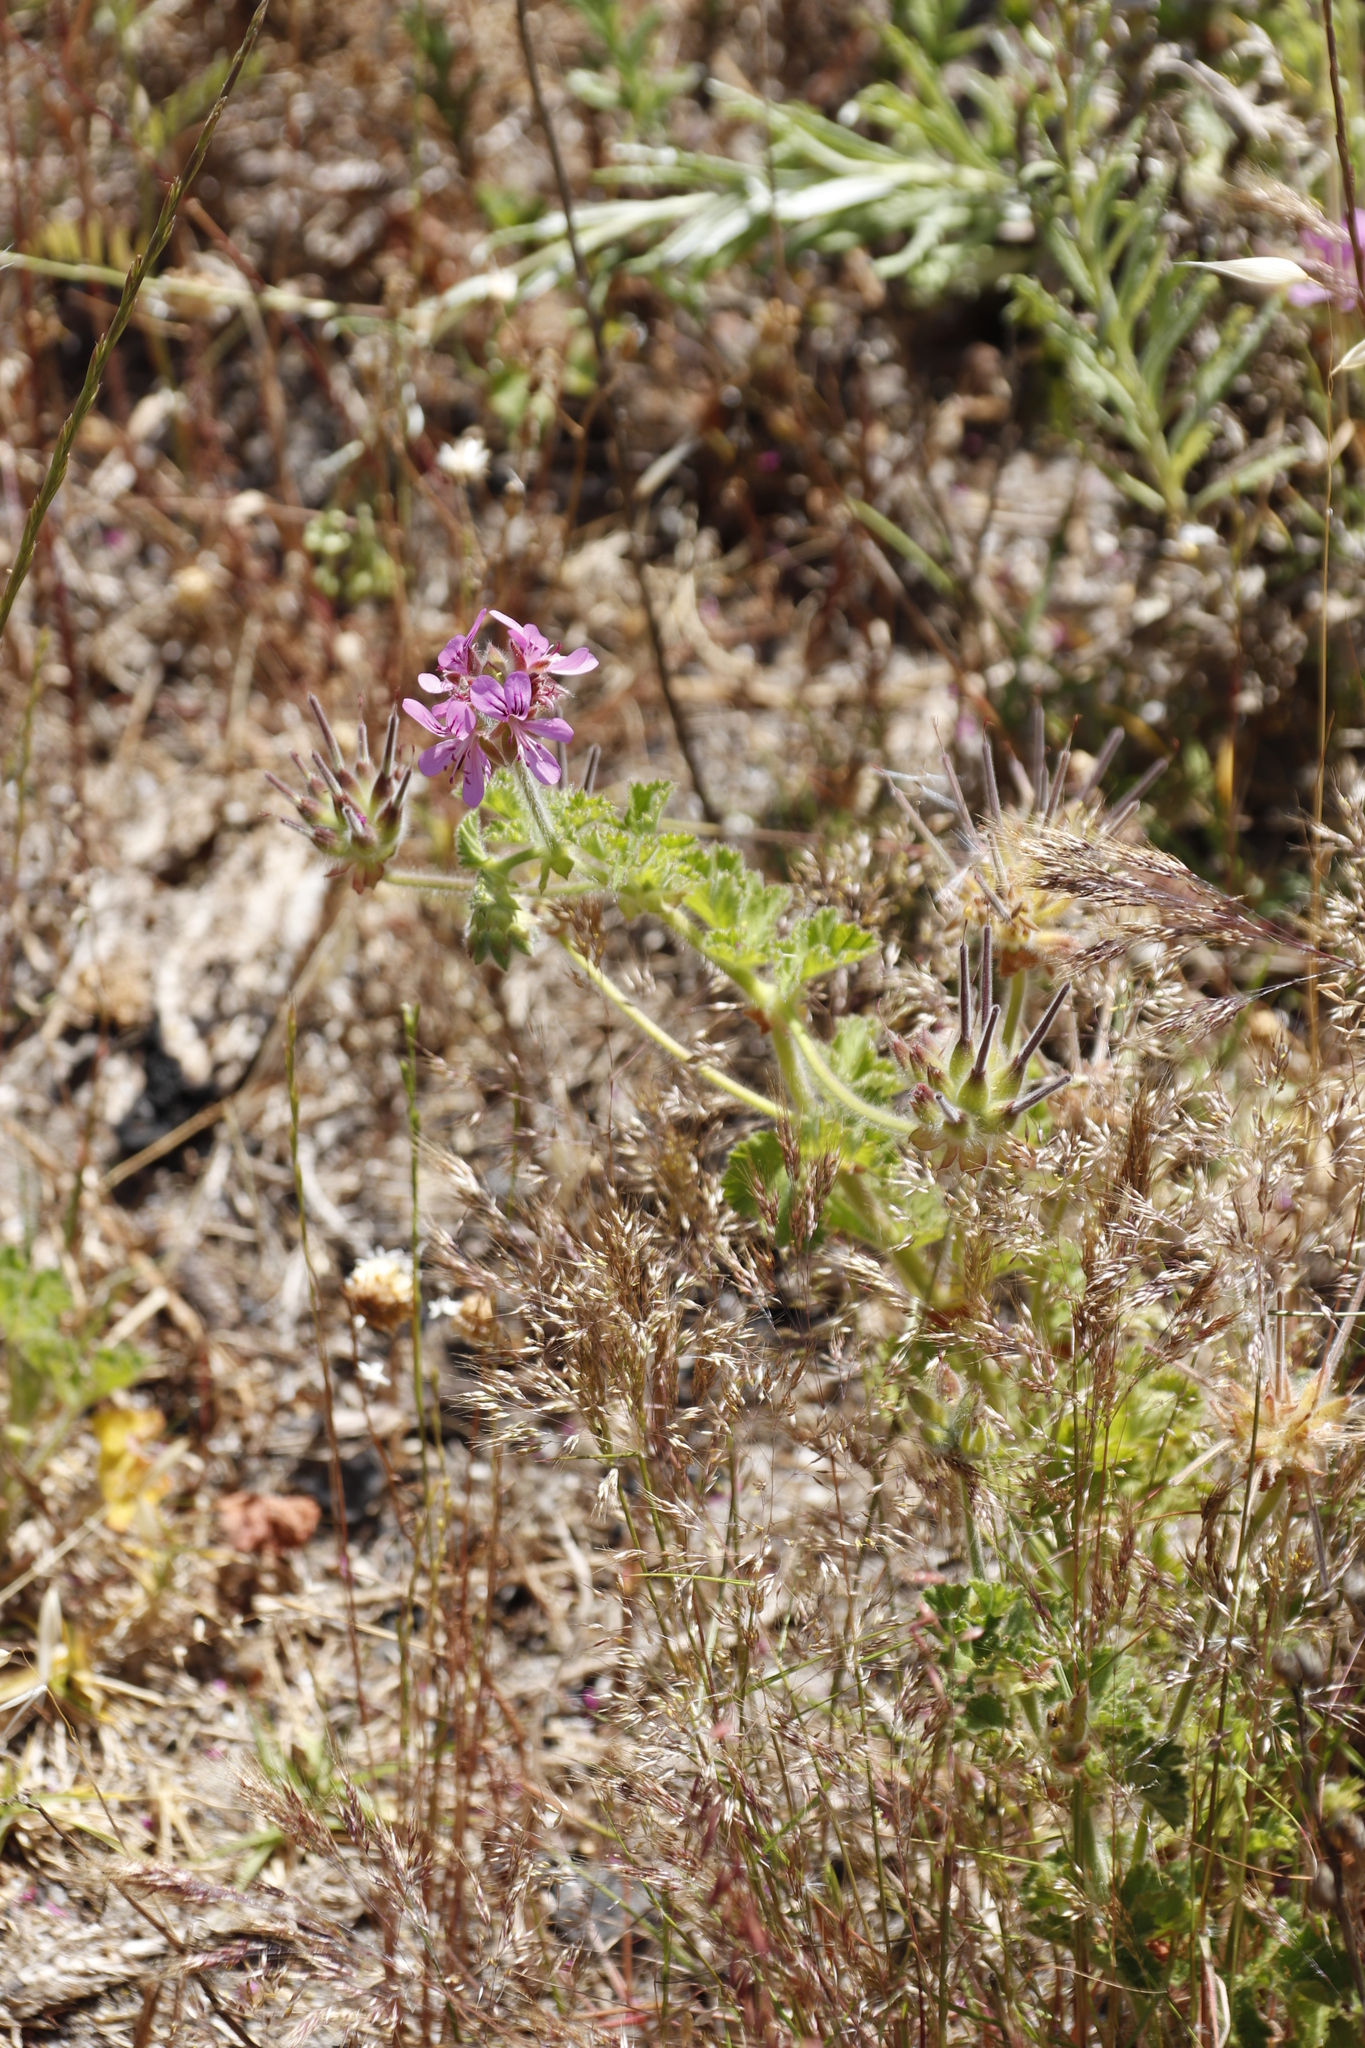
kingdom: Plantae
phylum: Tracheophyta
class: Magnoliopsida
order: Geraniales
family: Geraniaceae
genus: Pelargonium
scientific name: Pelargonium capitatum
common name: Rose scented geranium
